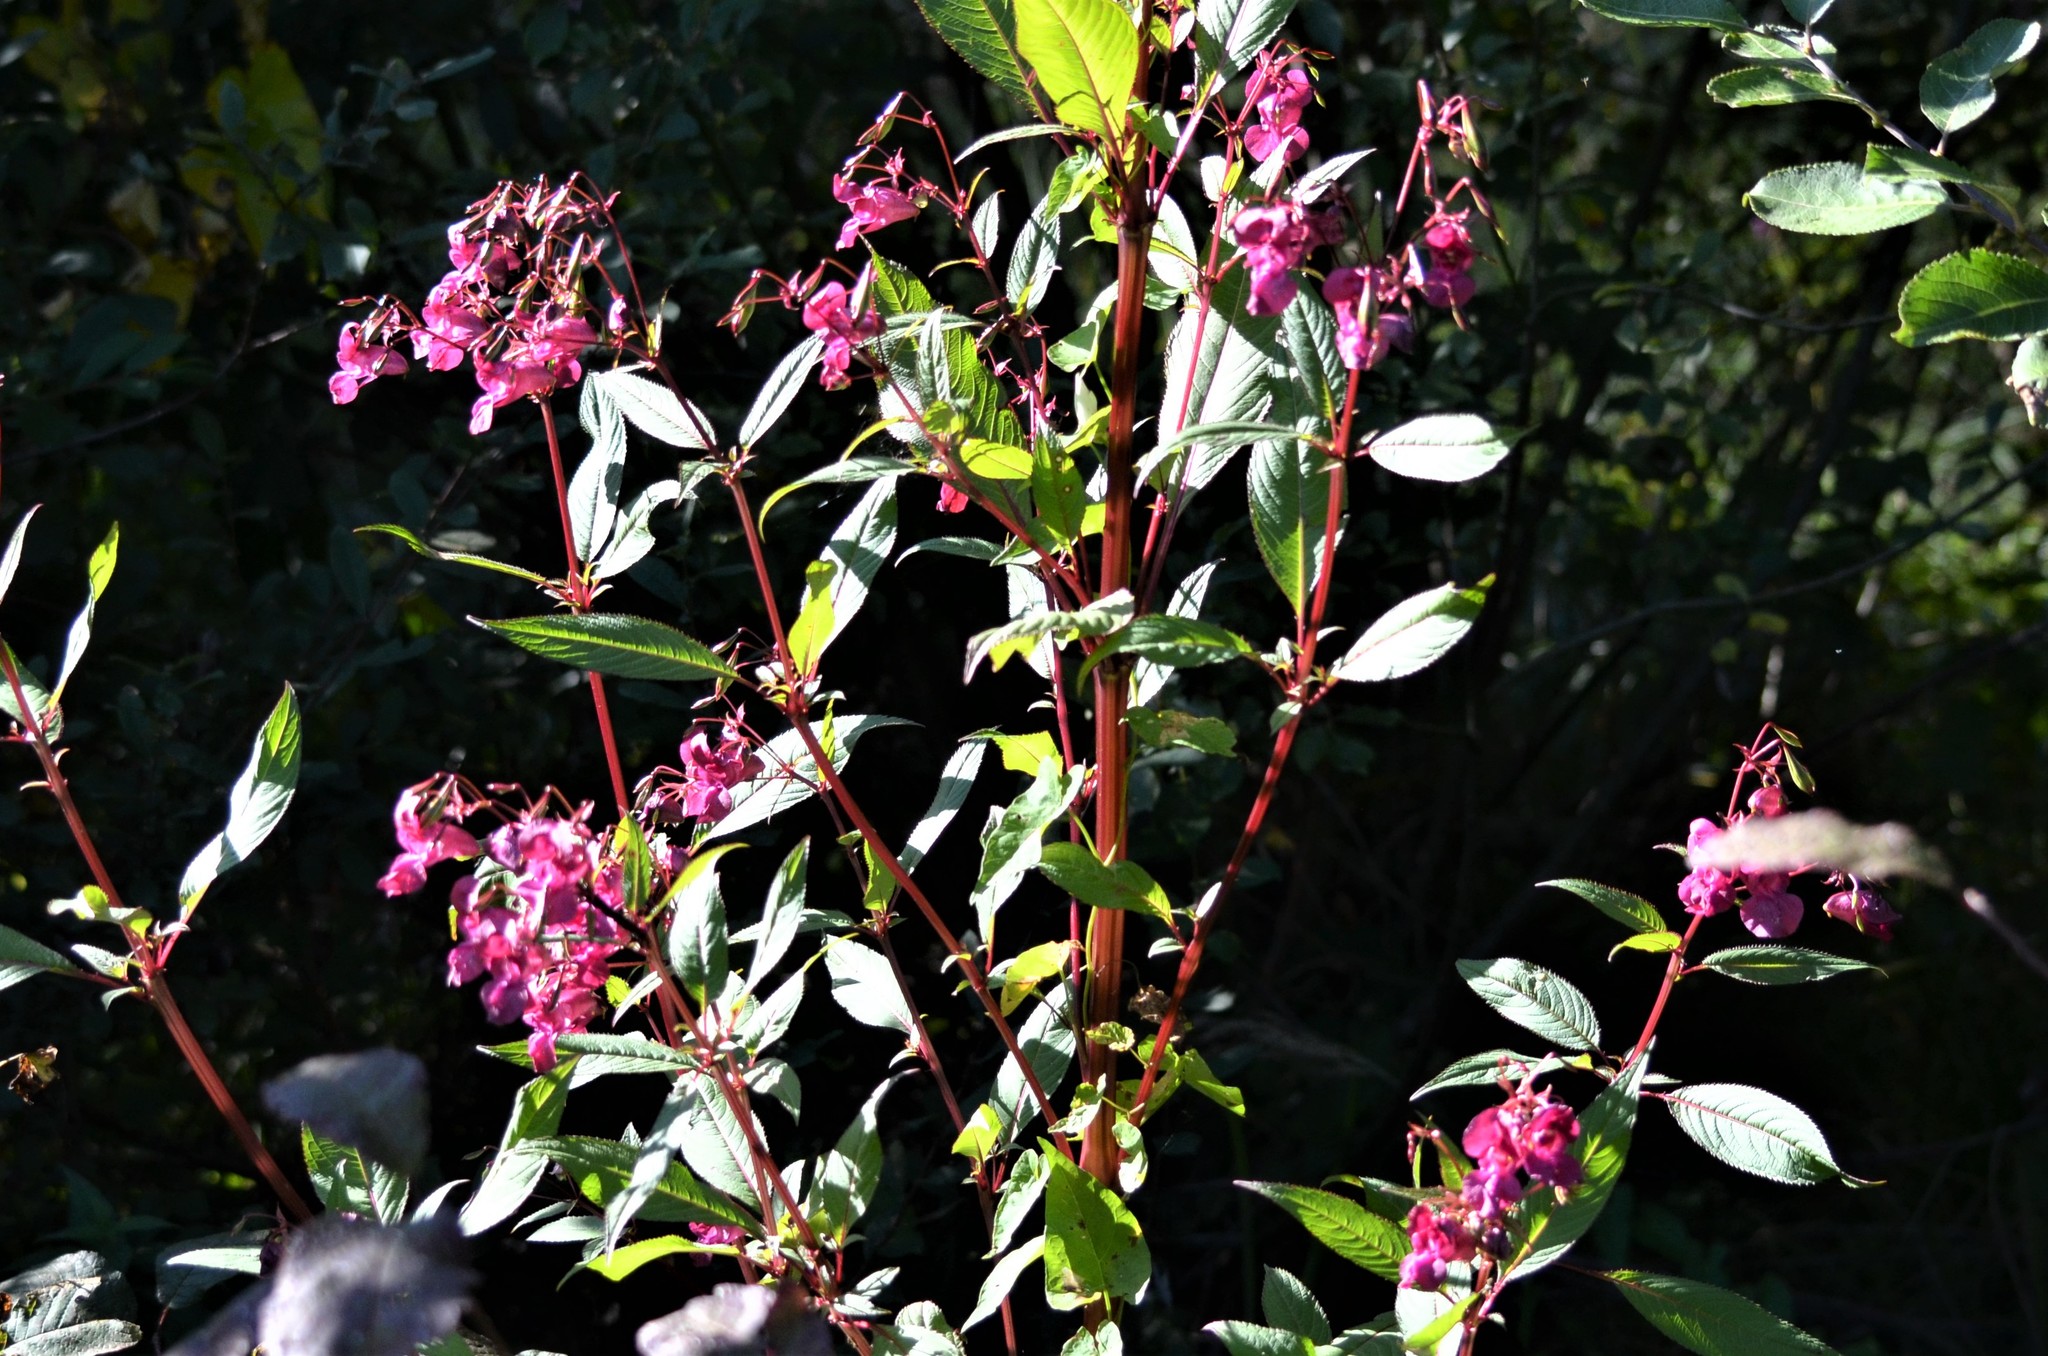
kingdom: Plantae
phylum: Tracheophyta
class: Magnoliopsida
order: Ericales
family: Balsaminaceae
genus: Impatiens
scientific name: Impatiens glandulifera
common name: Himalayan balsam
